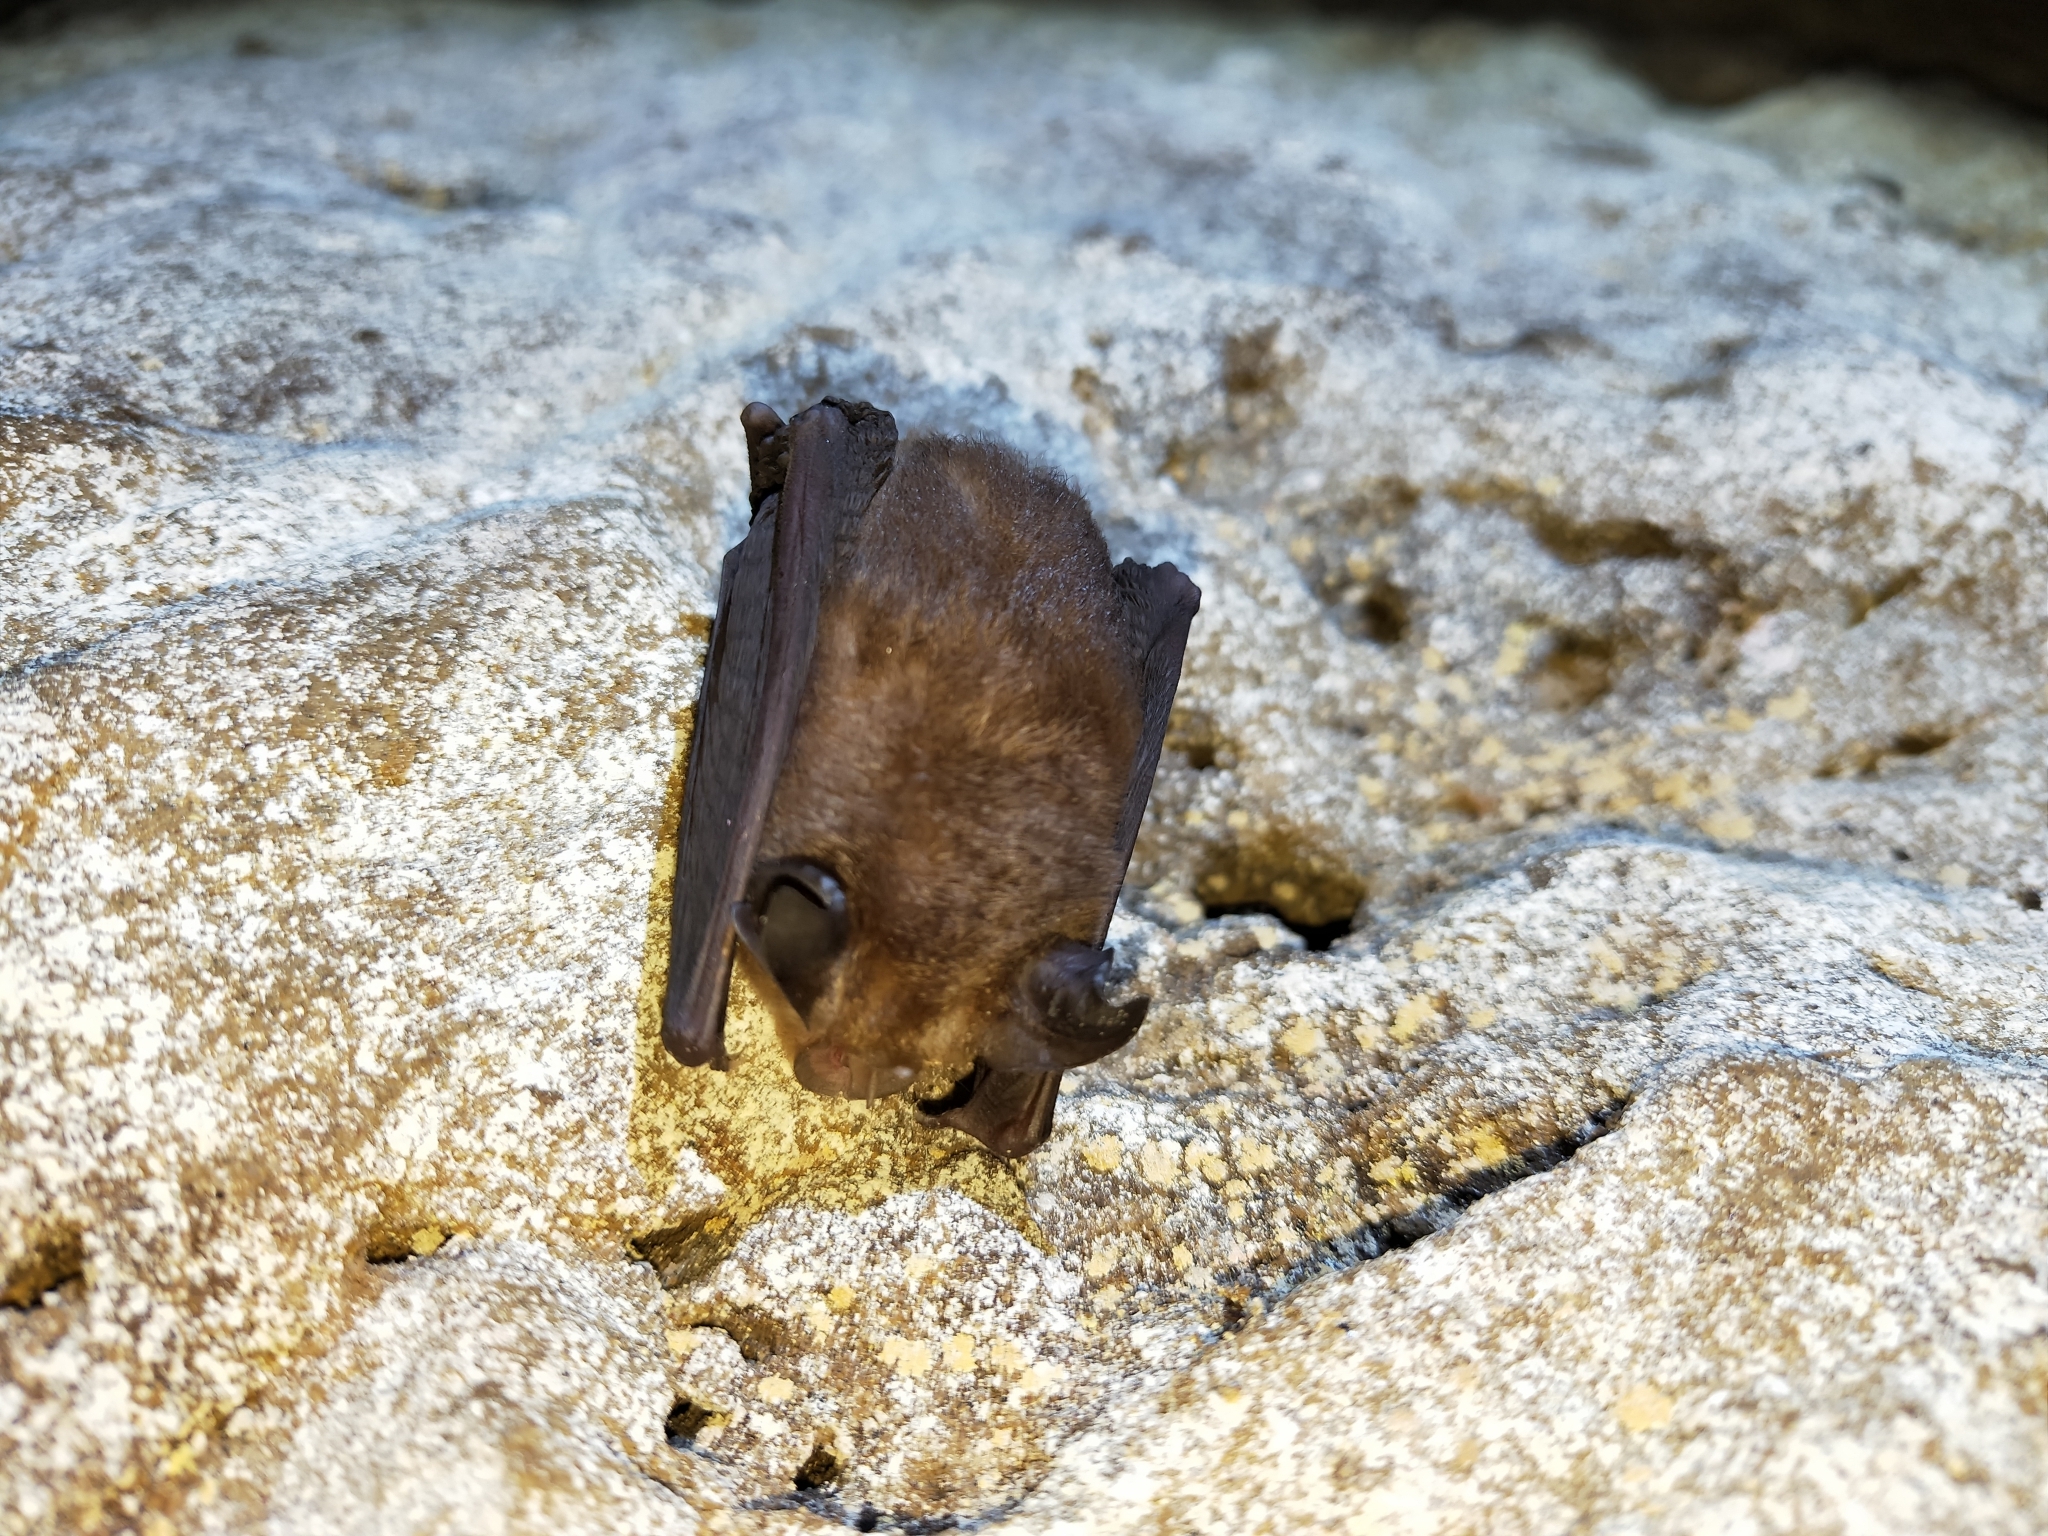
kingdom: Animalia
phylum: Chordata
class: Mammalia
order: Chiroptera
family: Rhinolophidae
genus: Rhinolophus
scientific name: Rhinolophus monoceros
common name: Formosan lesser horseshoe bat
